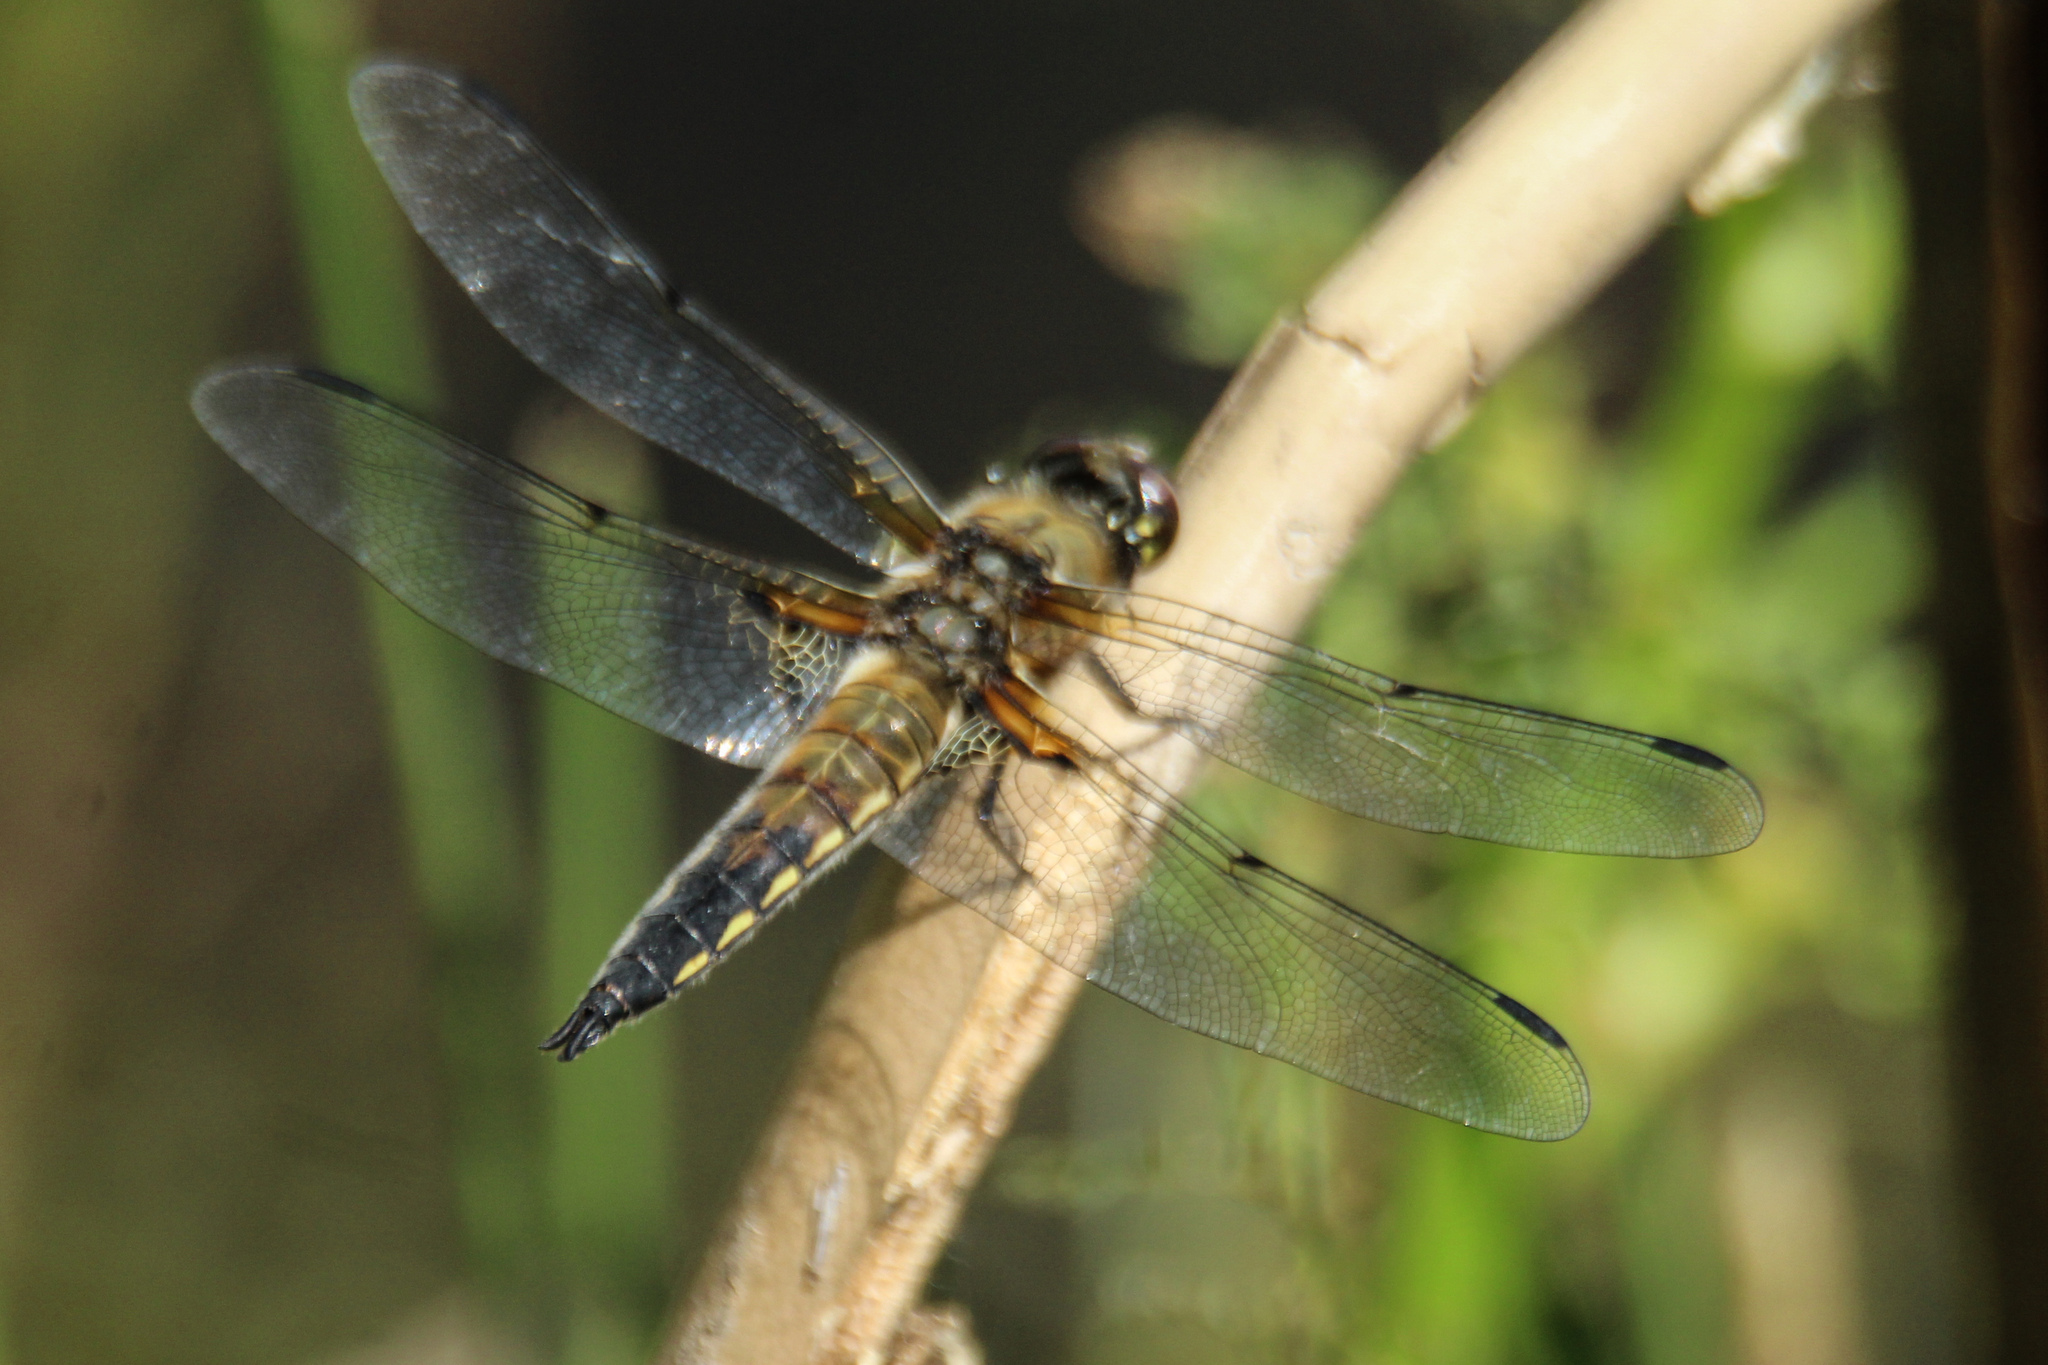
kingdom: Animalia
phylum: Arthropoda
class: Insecta
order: Odonata
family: Libellulidae
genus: Libellula
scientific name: Libellula quadrimaculata
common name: Four-spotted chaser
